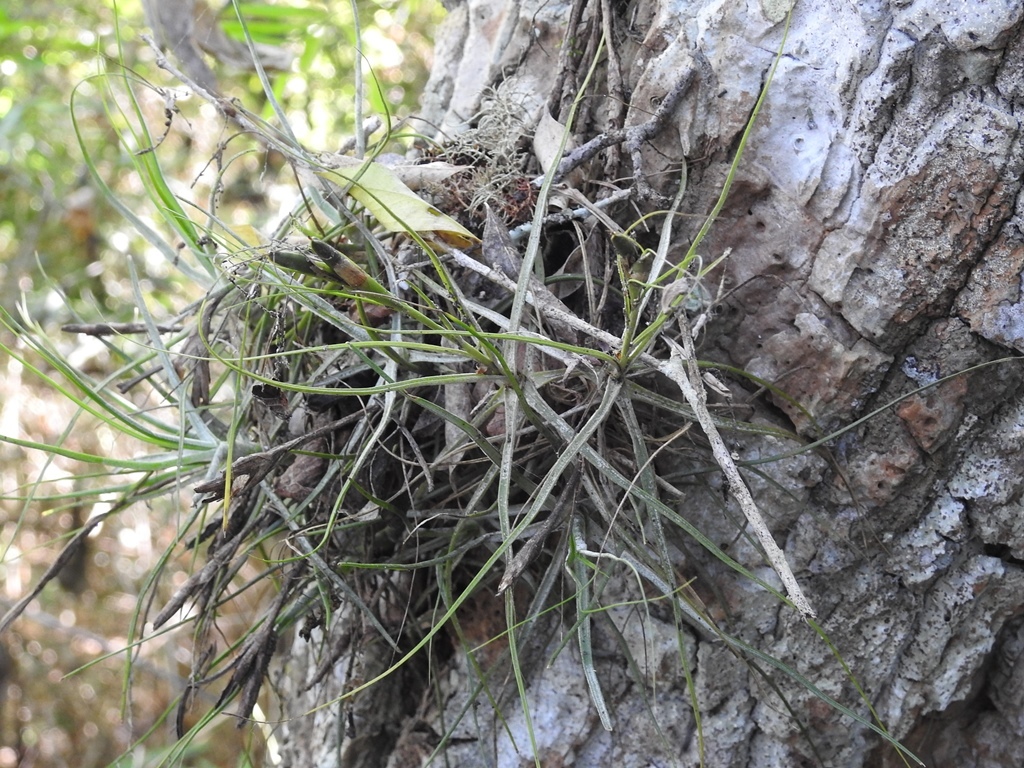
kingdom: Plantae
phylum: Tracheophyta
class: Liliopsida
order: Poales
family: Bromeliaceae
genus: Tillandsia
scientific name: Tillandsia schiedeana
